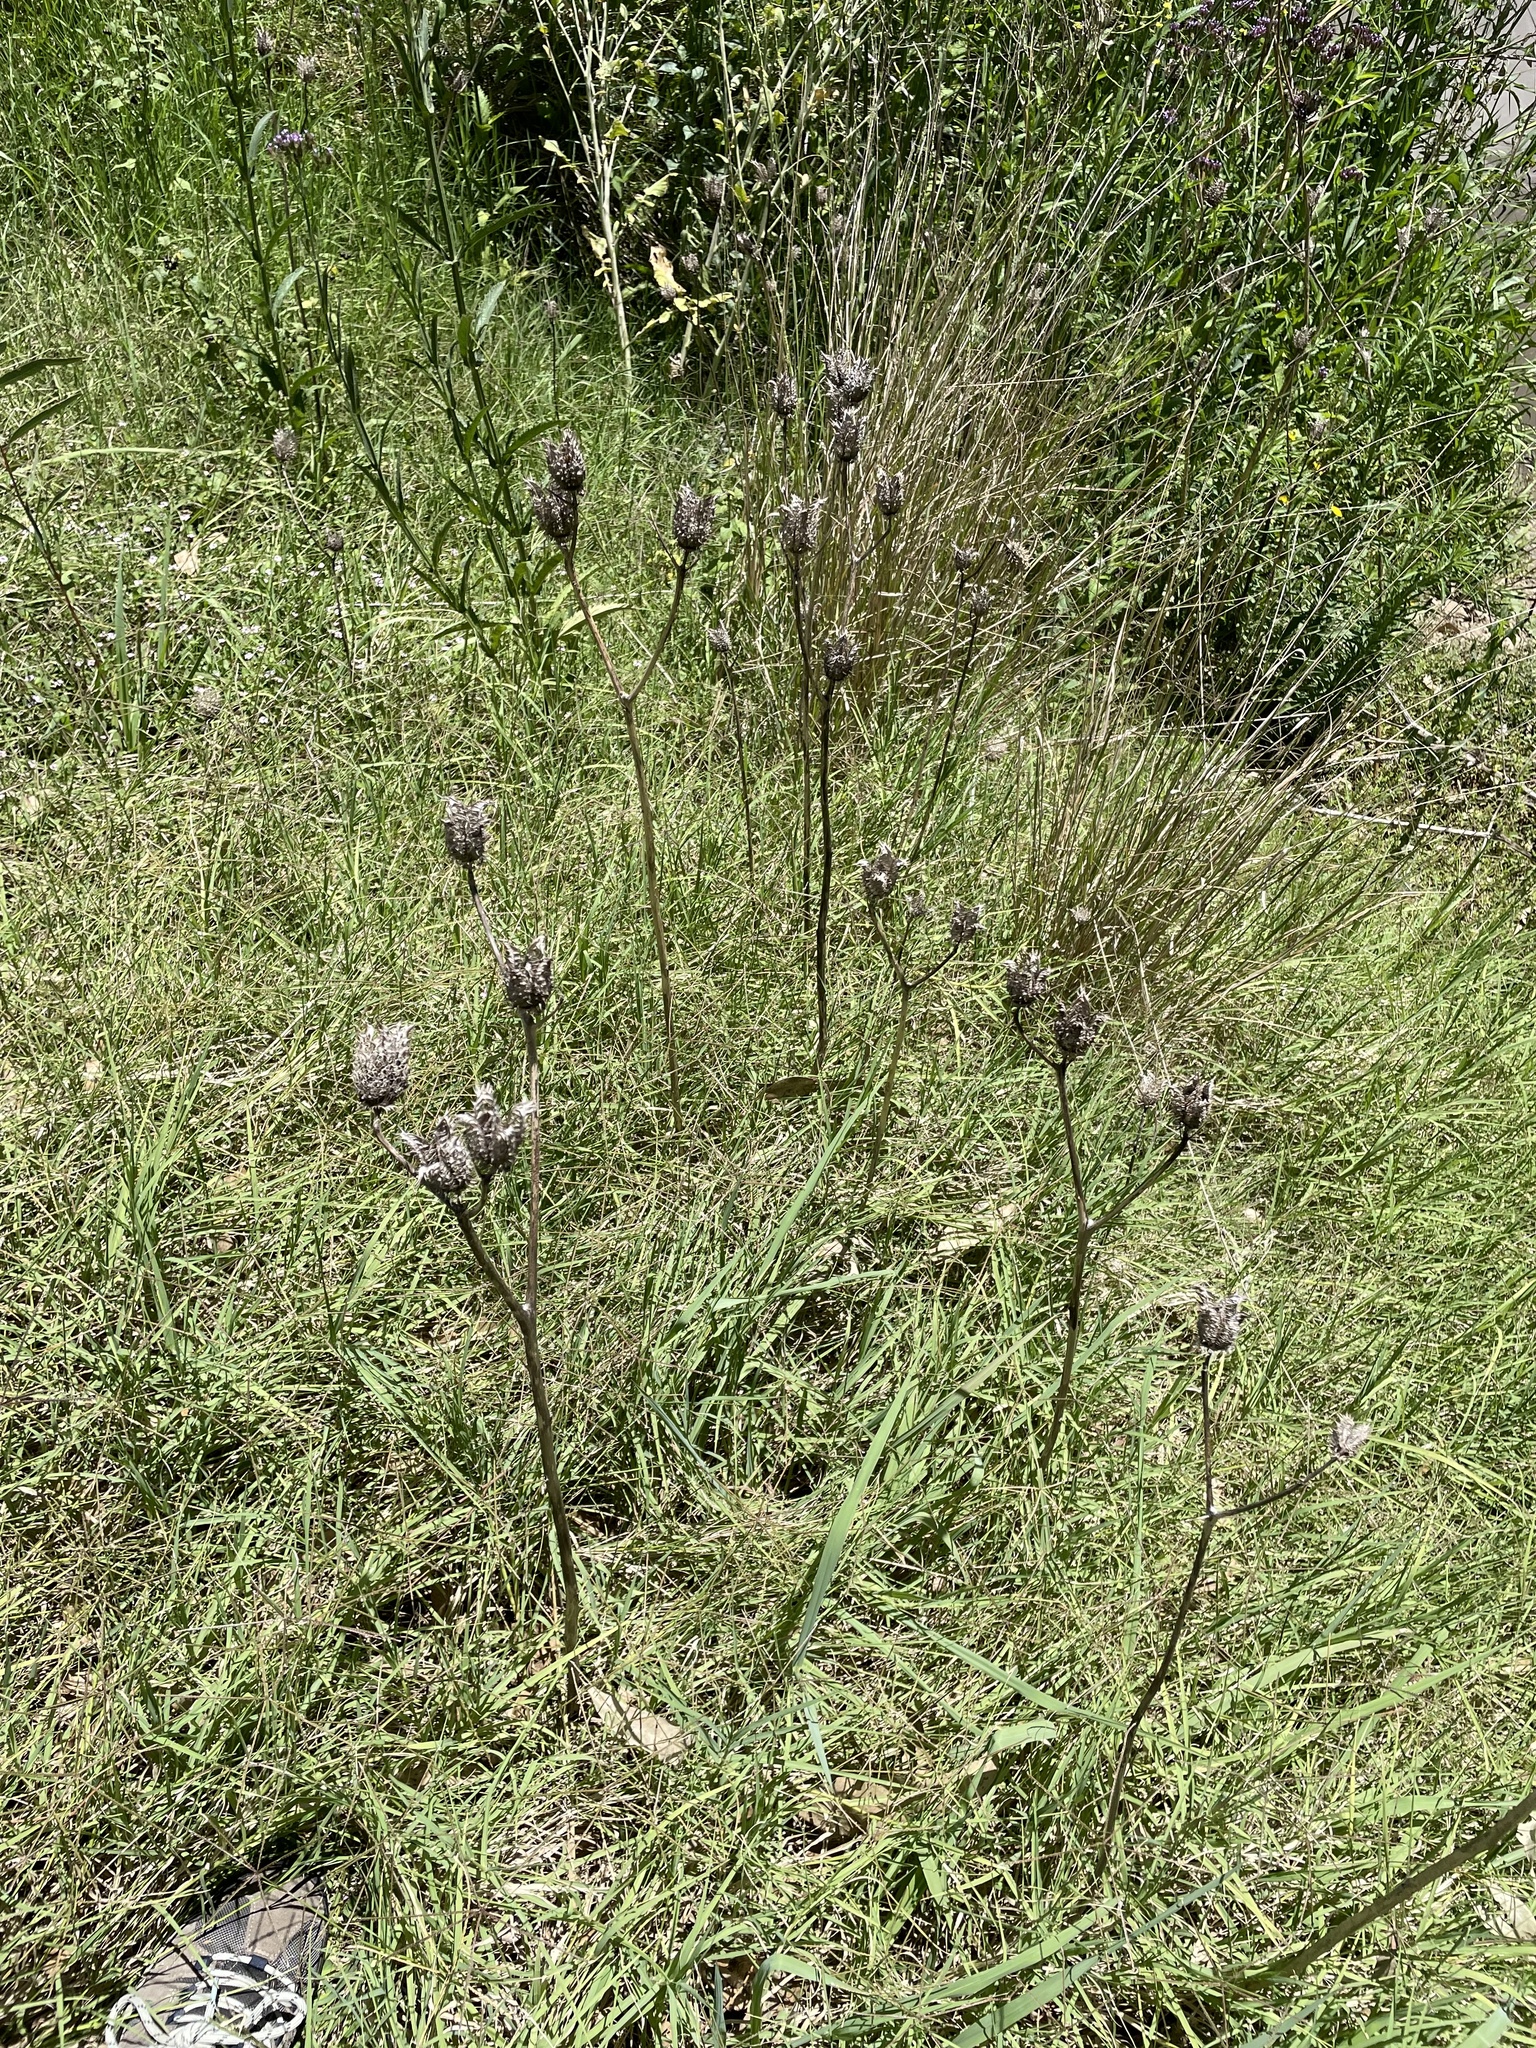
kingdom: Plantae
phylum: Tracheophyta
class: Magnoliopsida
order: Solanales
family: Solanaceae
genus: Datura
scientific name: Datura stramonium
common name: Thorn-apple
